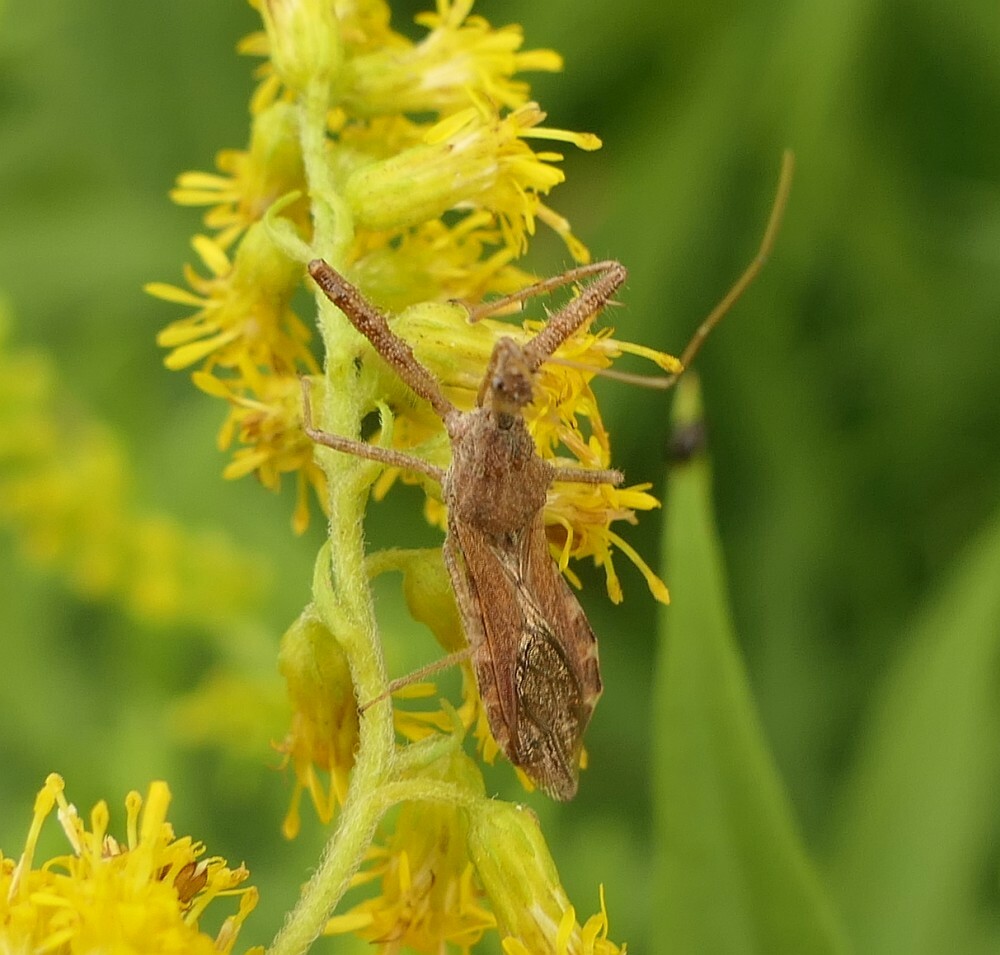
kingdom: Animalia
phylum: Arthropoda
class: Insecta
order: Hemiptera
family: Reduviidae
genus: Sinea
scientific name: Sinea diadema
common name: Spined assassin bug
